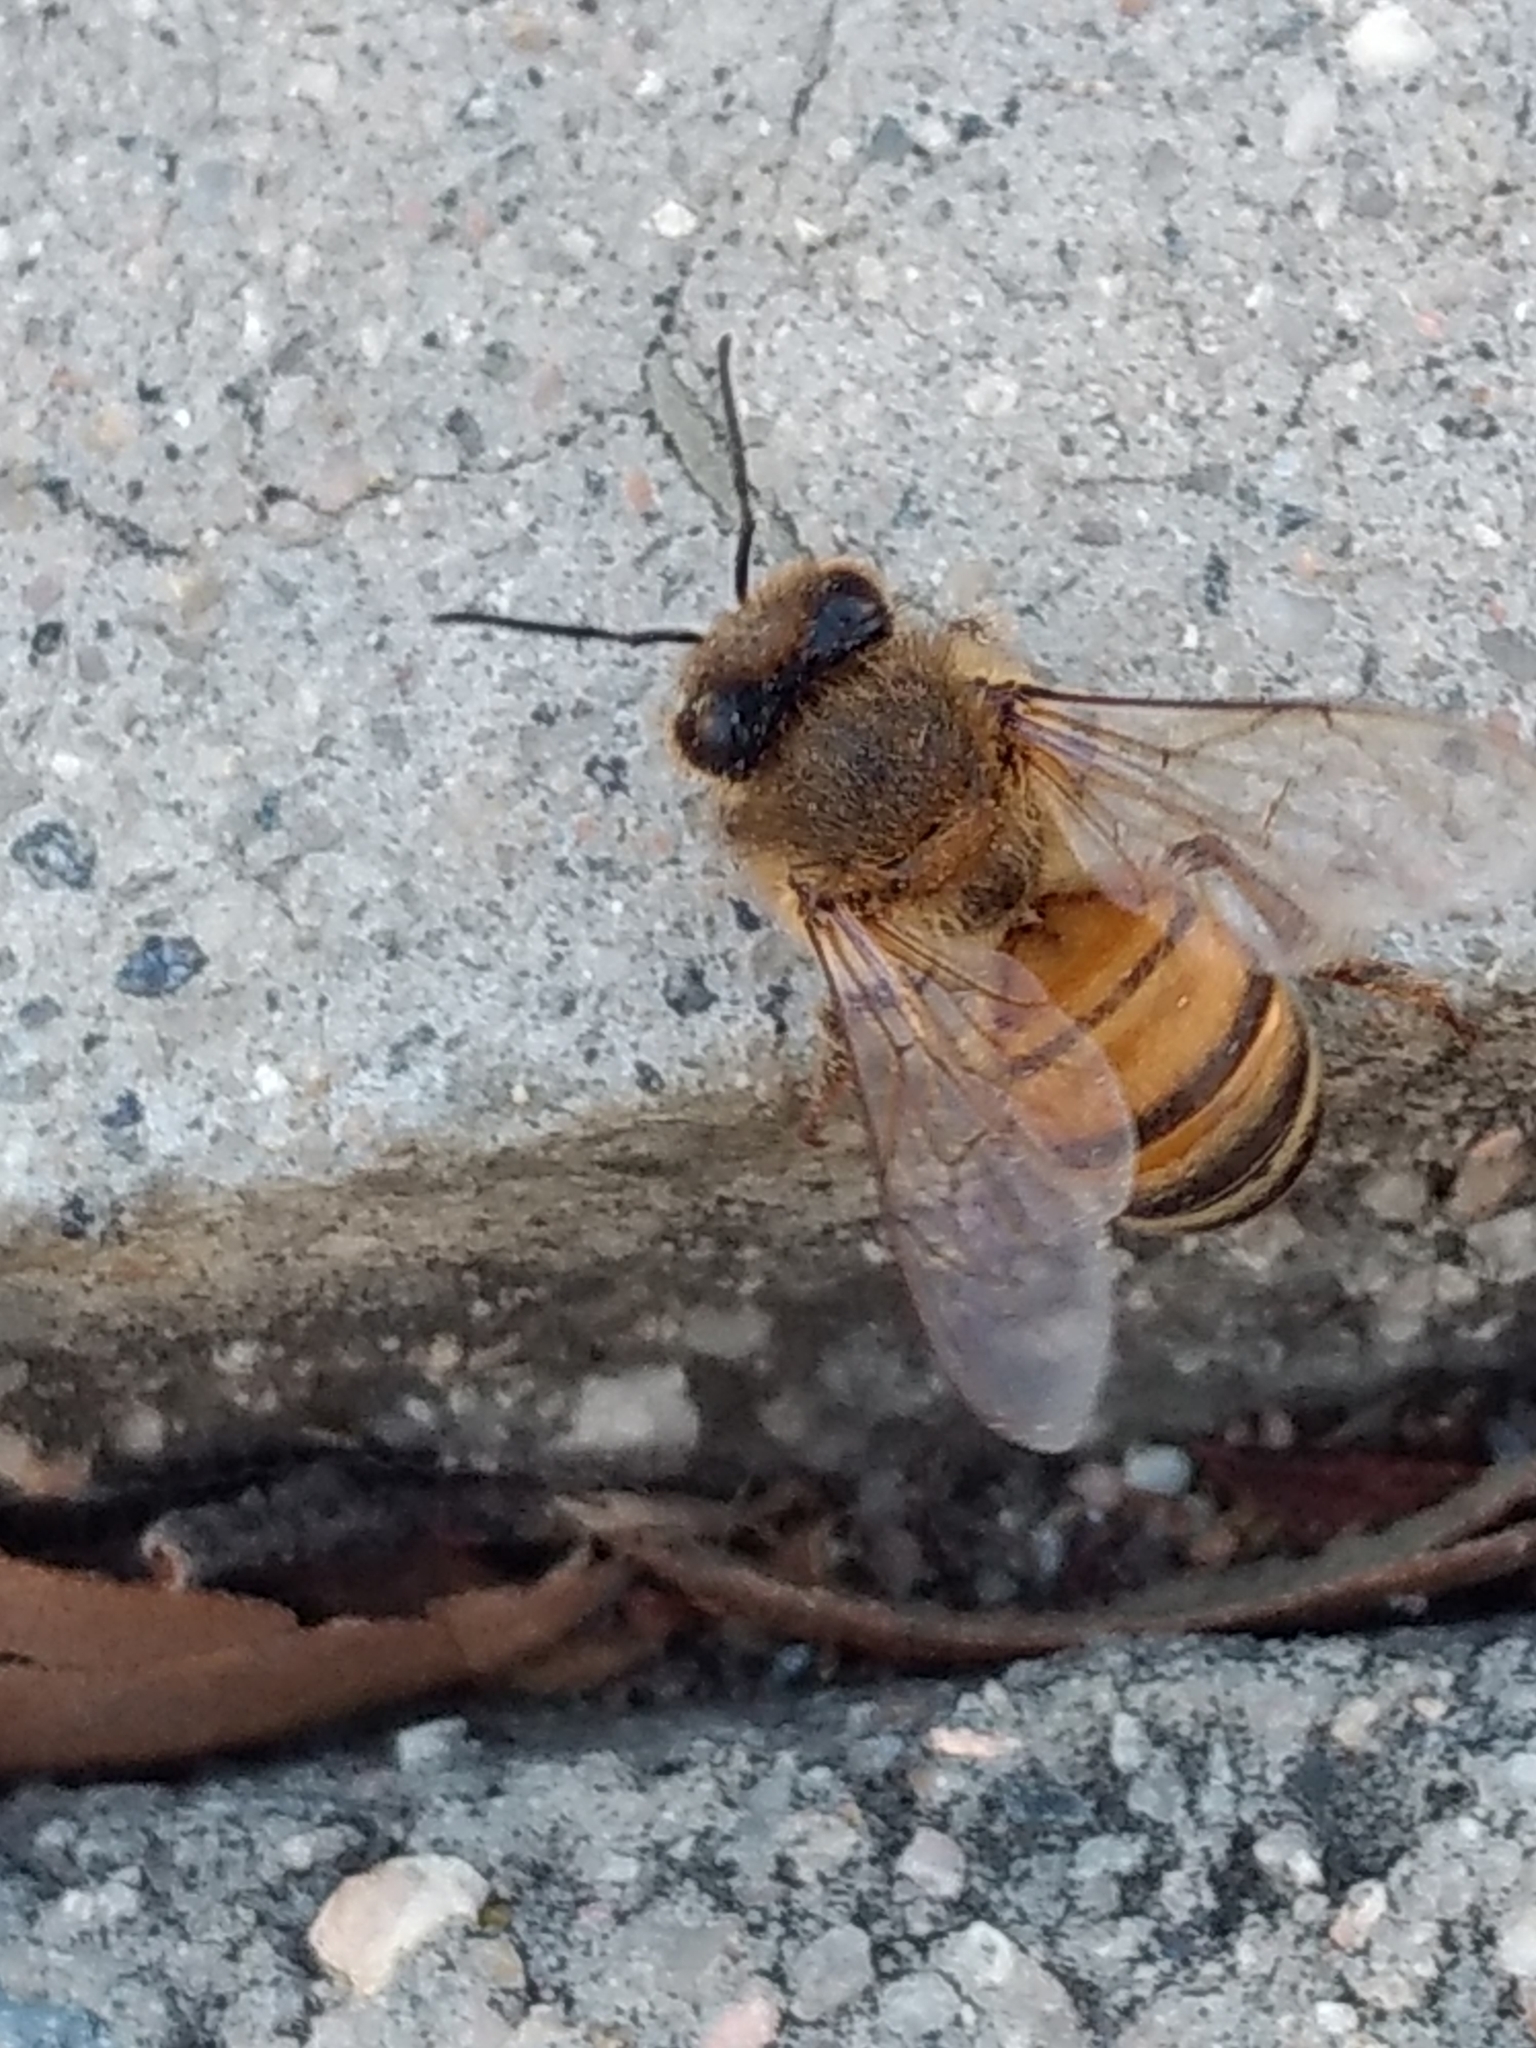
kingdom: Animalia
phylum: Arthropoda
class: Insecta
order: Hymenoptera
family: Apidae
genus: Apis
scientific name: Apis mellifera
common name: Honey bee
